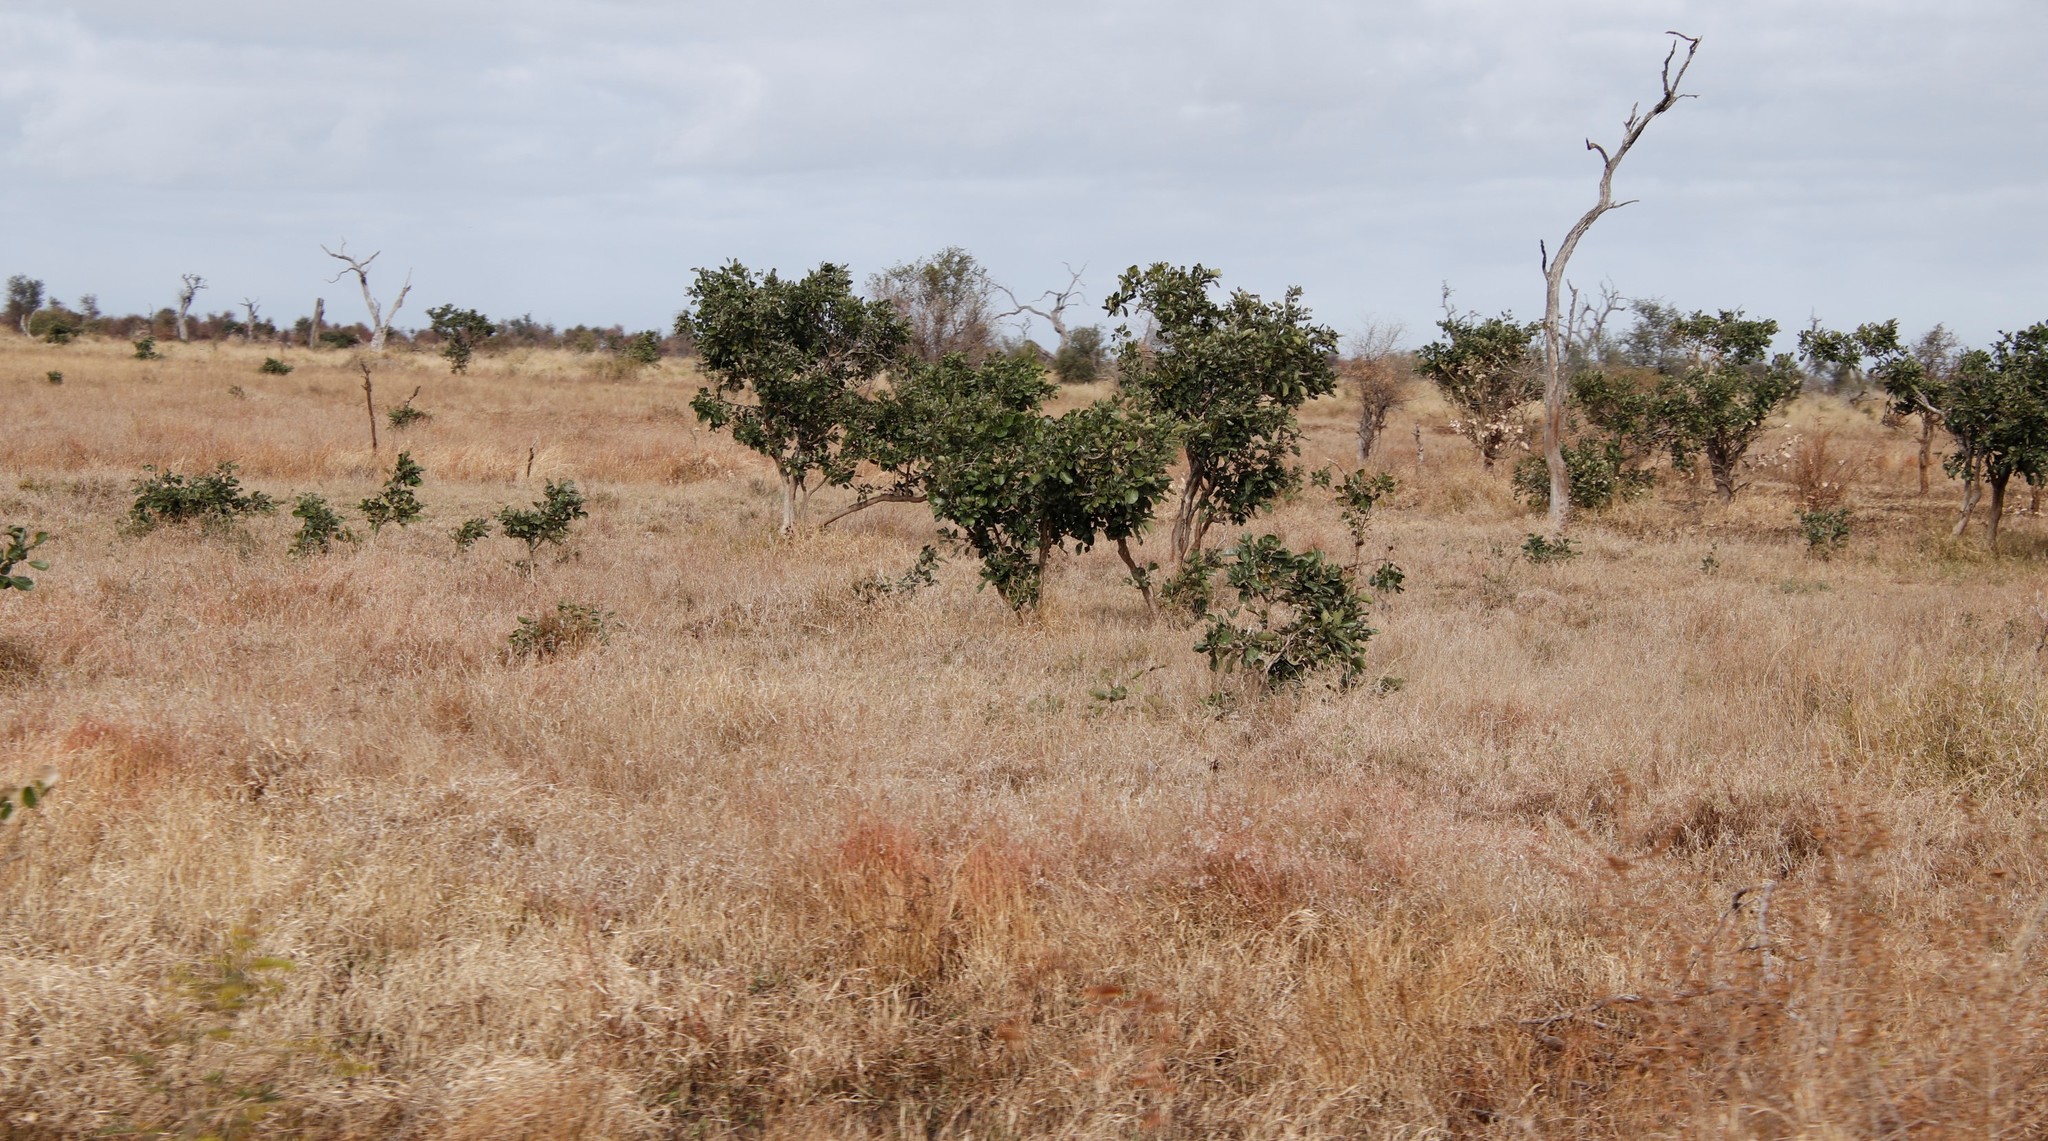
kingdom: Plantae
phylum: Tracheophyta
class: Magnoliopsida
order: Fabales
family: Fabaceae
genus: Philenoptera
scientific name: Philenoptera violacea
